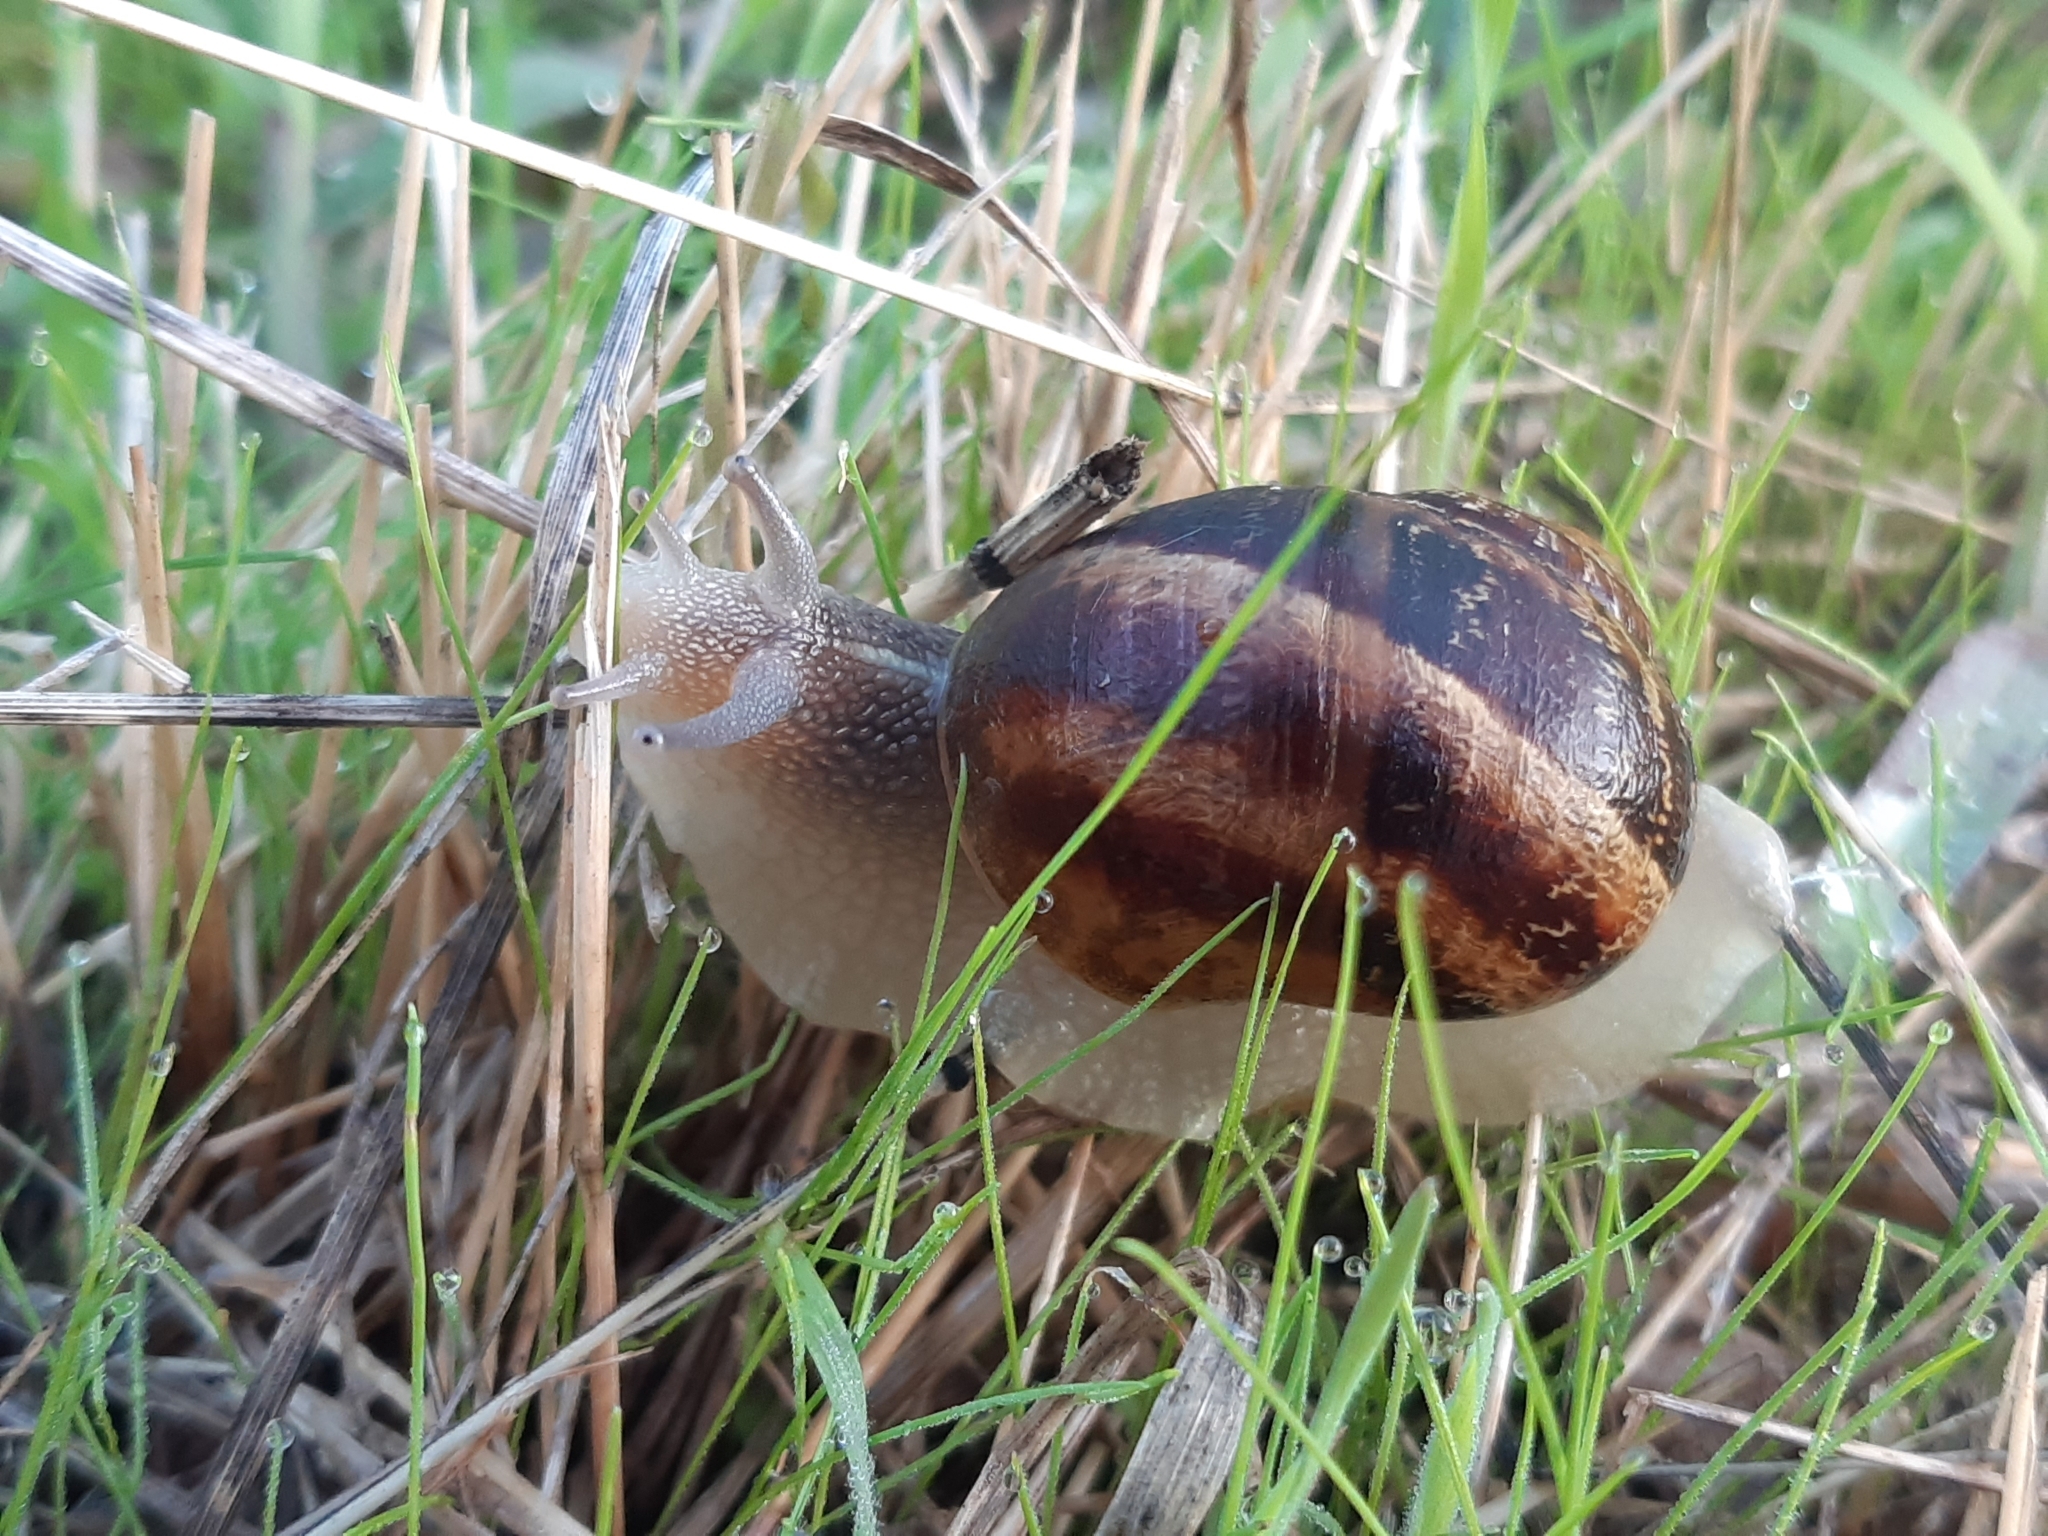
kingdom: Animalia
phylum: Mollusca
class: Gastropoda
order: Stylommatophora
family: Helicidae
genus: Cornu
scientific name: Cornu aspersum
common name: Brown garden snail
